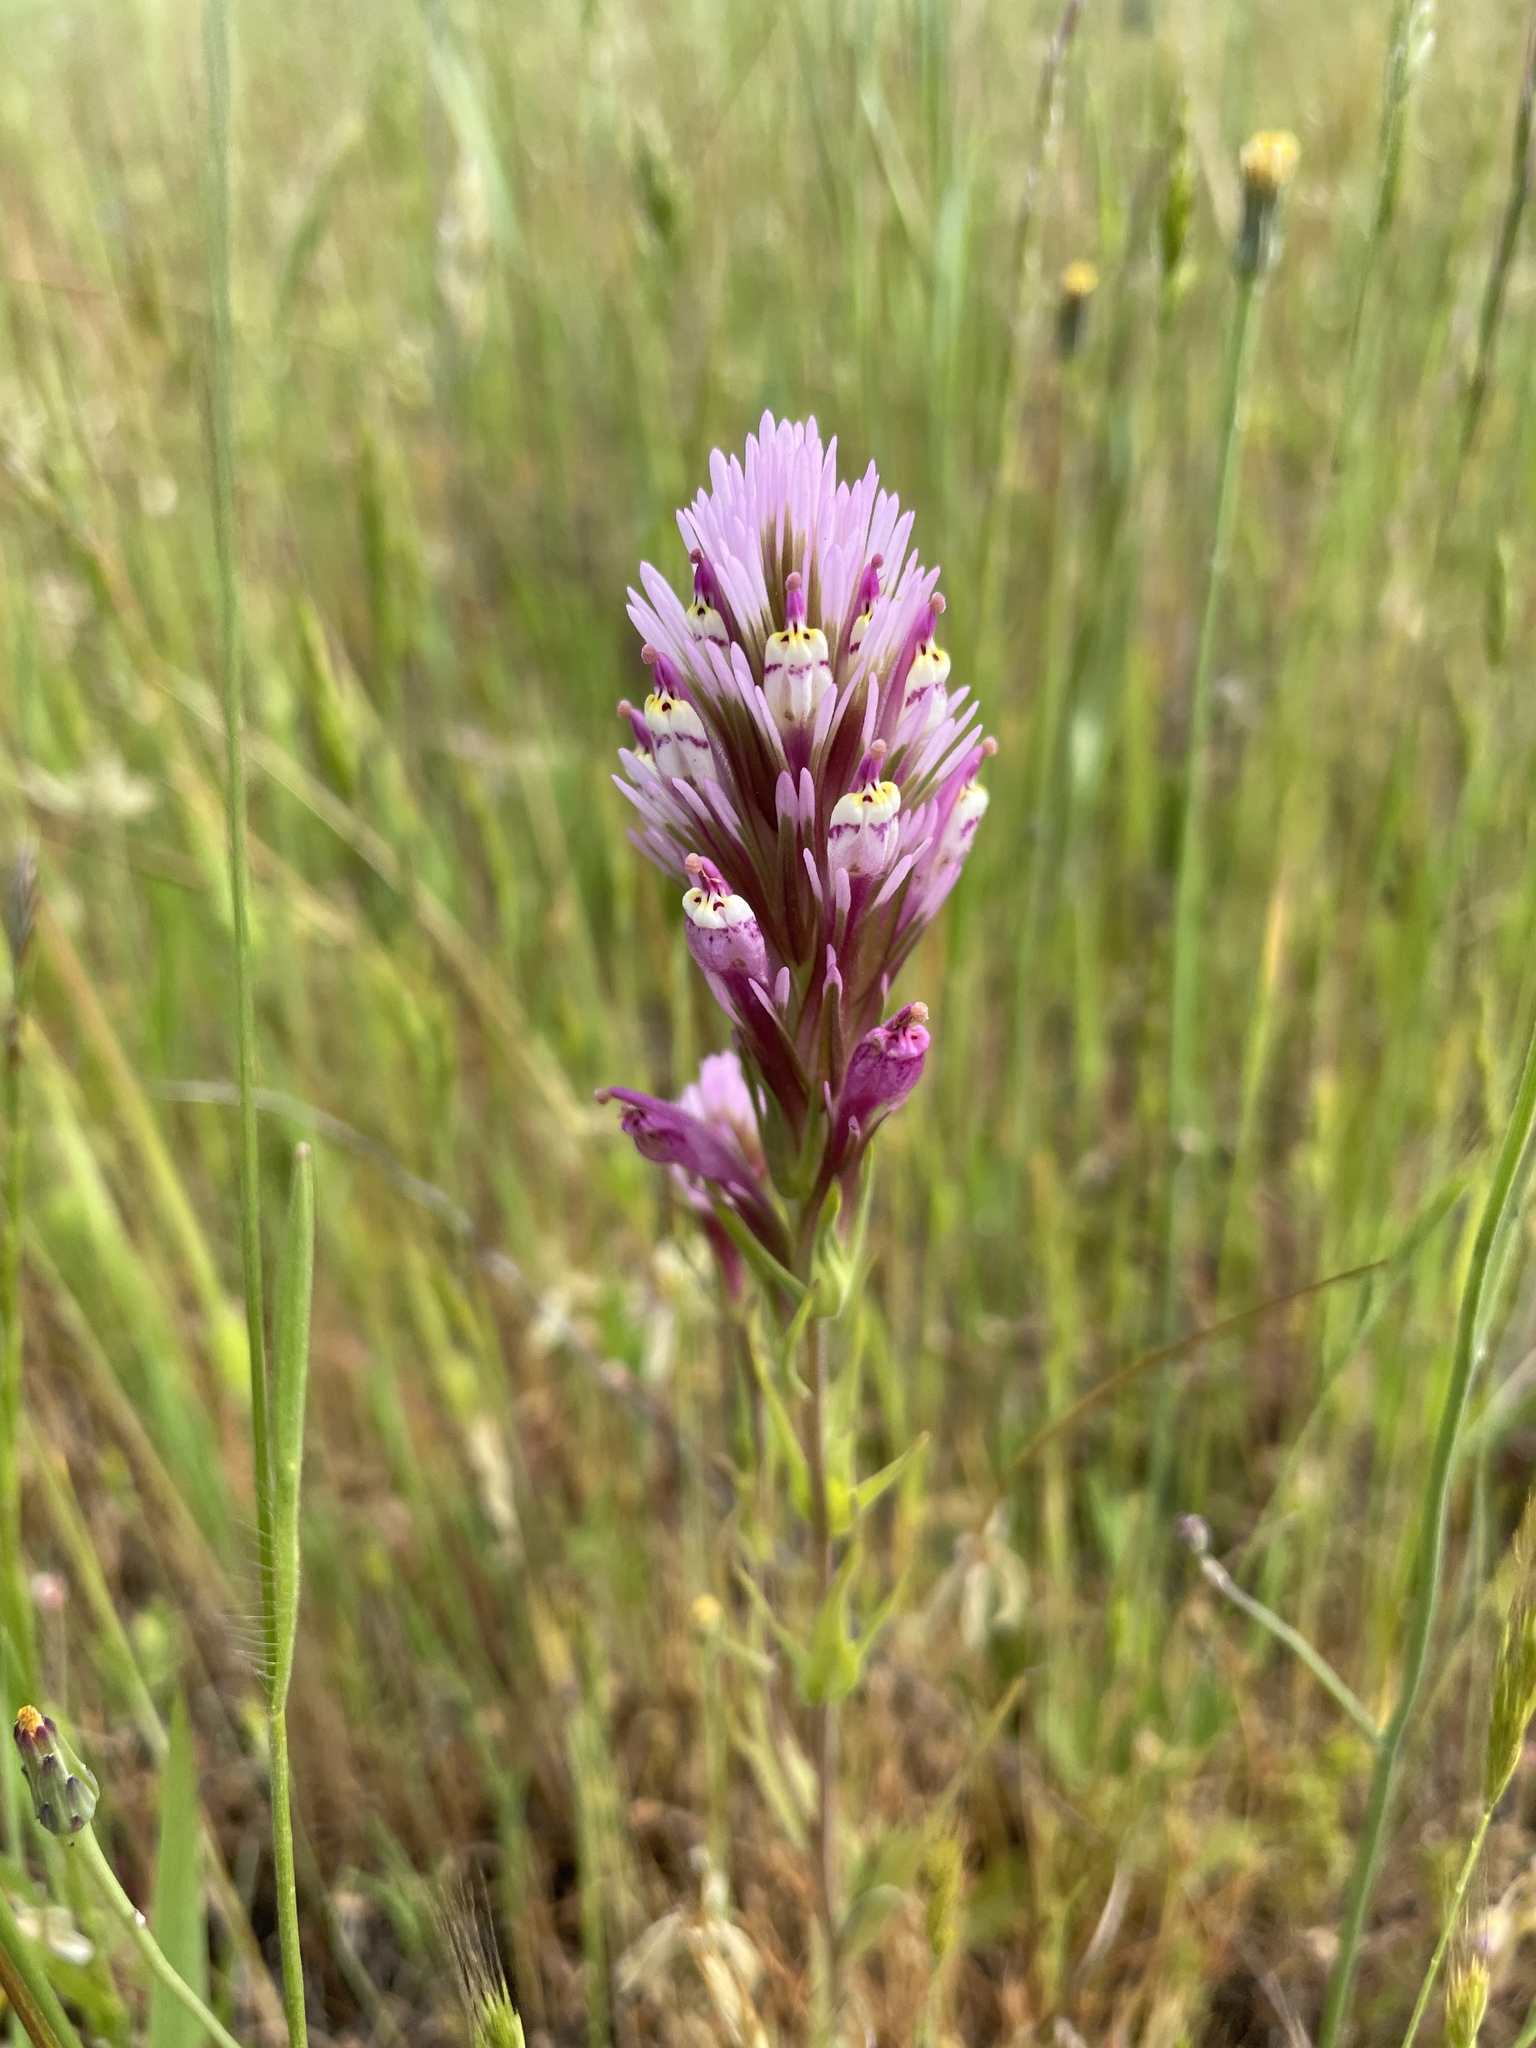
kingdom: Plantae
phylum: Tracheophyta
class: Magnoliopsida
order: Lamiales
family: Orobanchaceae
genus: Castilleja
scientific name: Castilleja densiflora
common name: Dense-flower indian paintbrush
